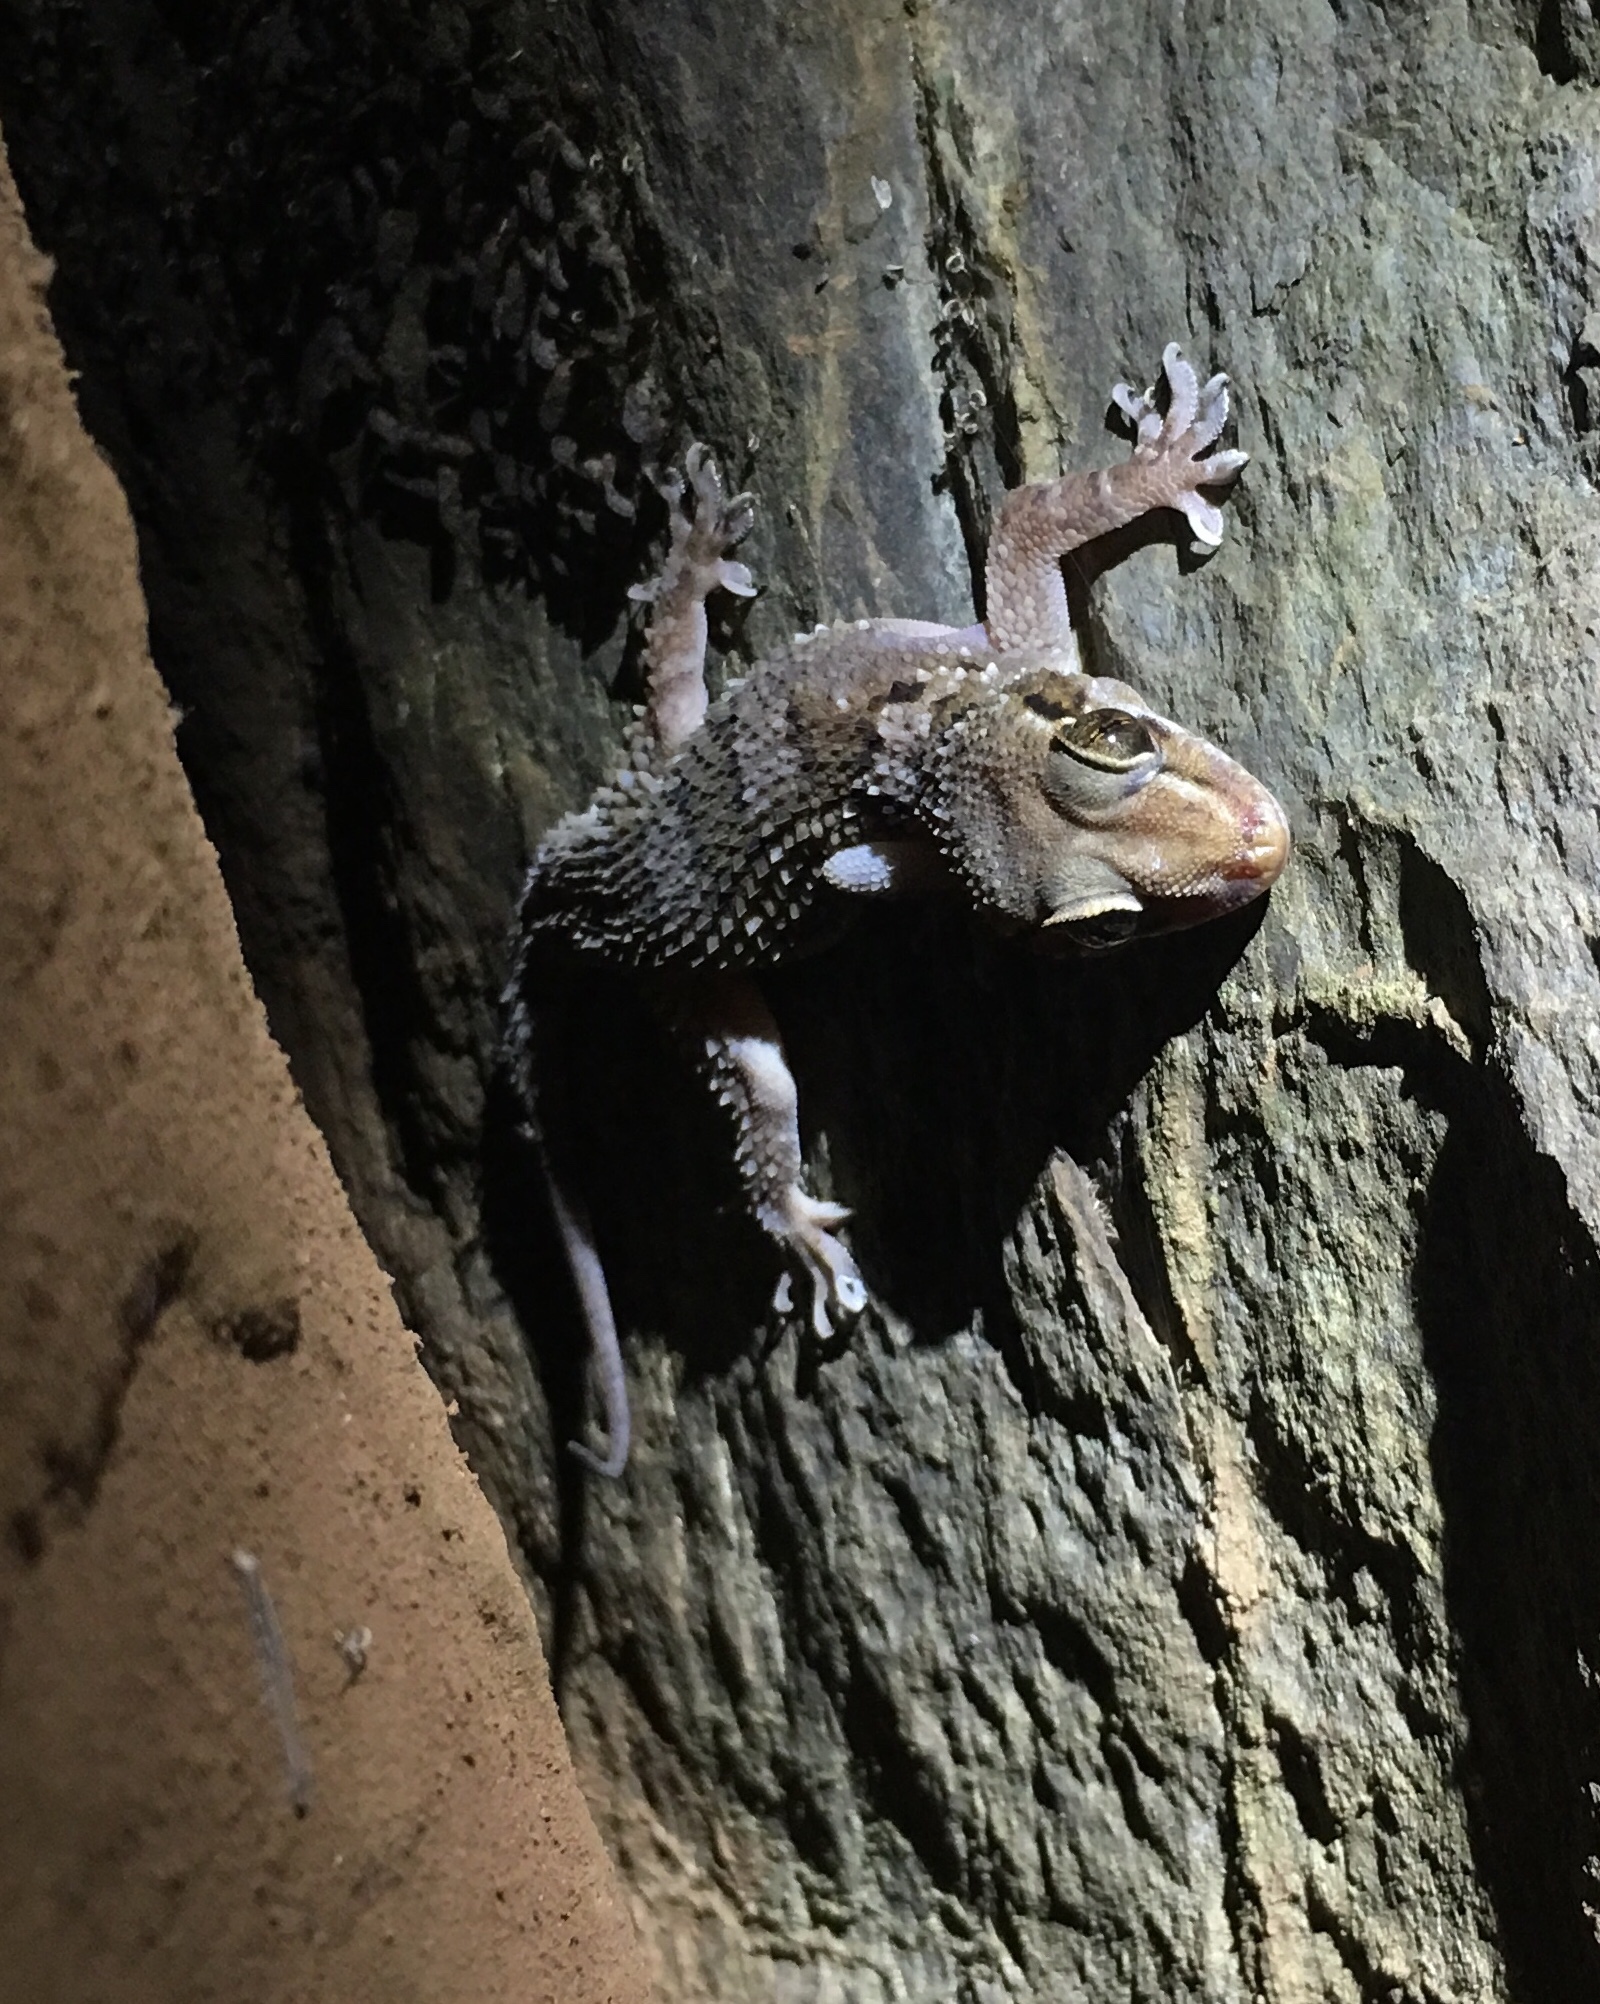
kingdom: Animalia
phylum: Chordata
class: Squamata
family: Gekkonidae
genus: Hemidactylus
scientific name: Hemidactylus sushilduttai
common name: Dutta’s mahendragiri gecko/ hemidactyl
